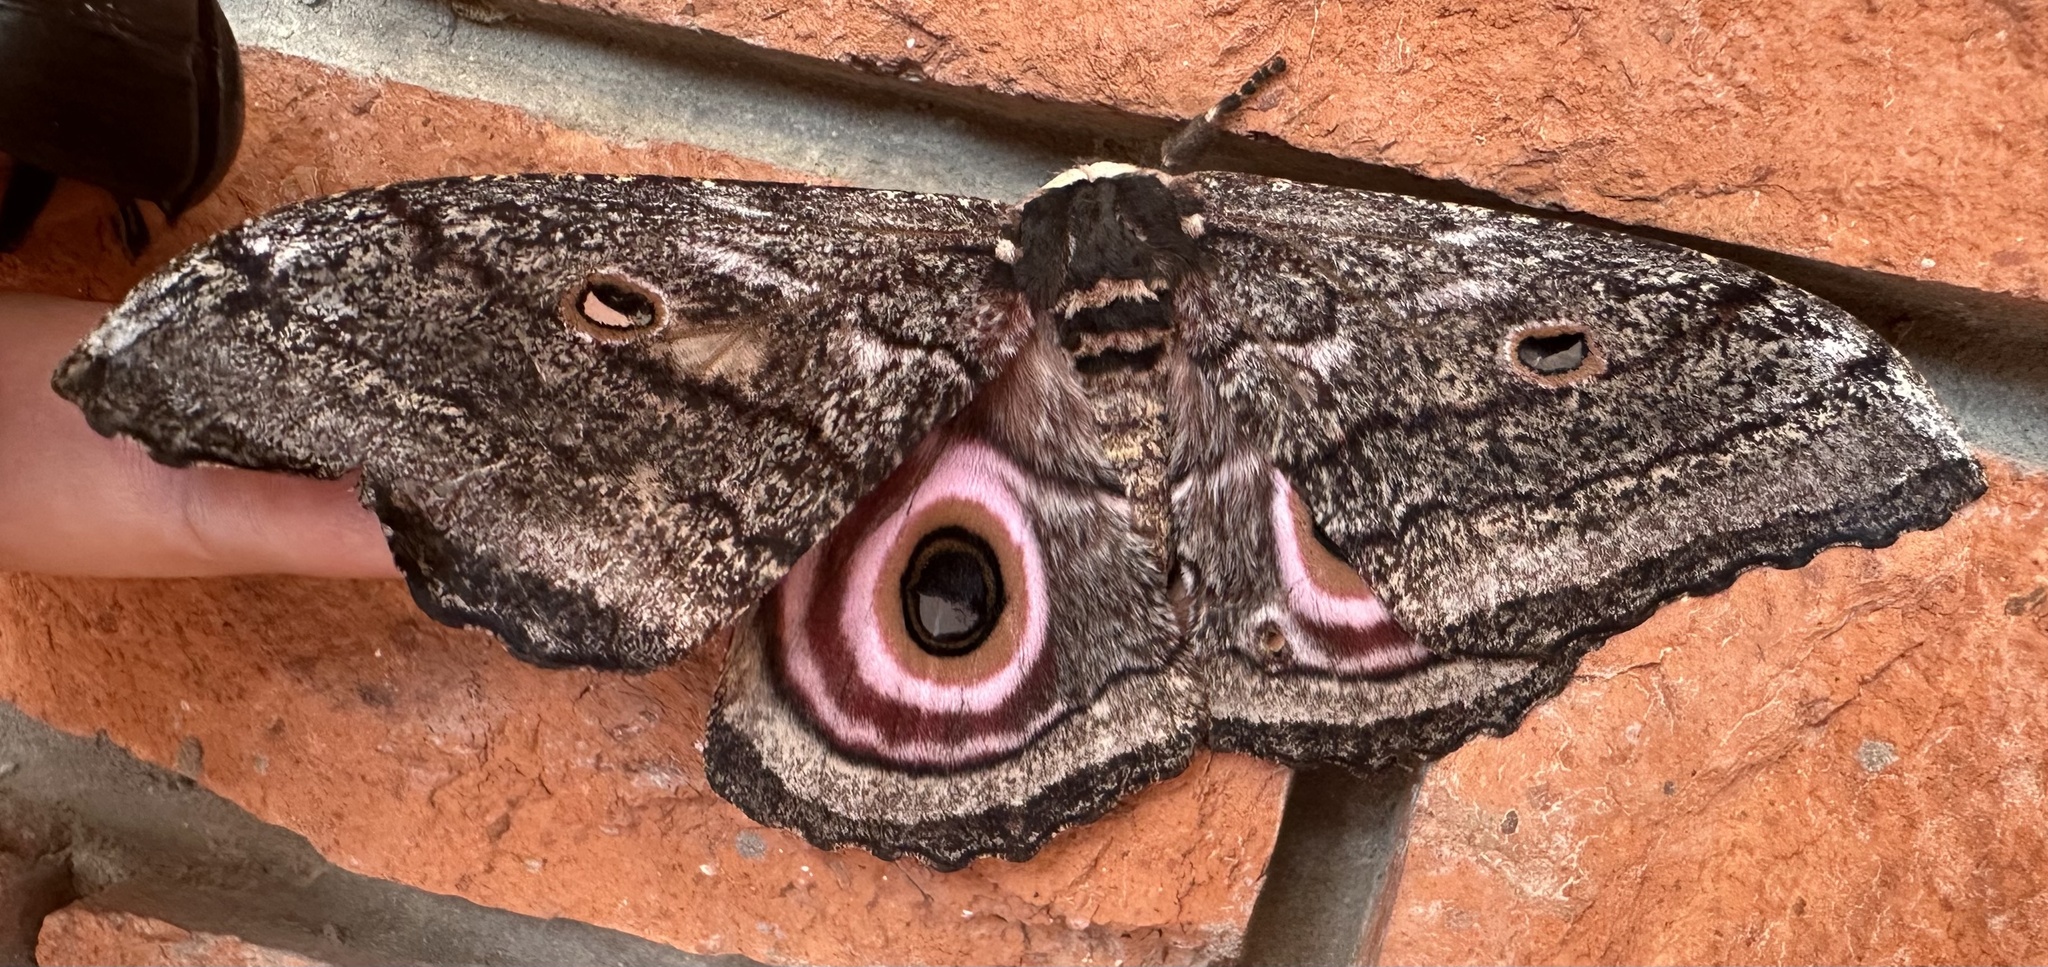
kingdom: Animalia
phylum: Arthropoda
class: Insecta
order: Lepidoptera
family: Saturniidae
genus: Gynanisa
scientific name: Gynanisa maja
